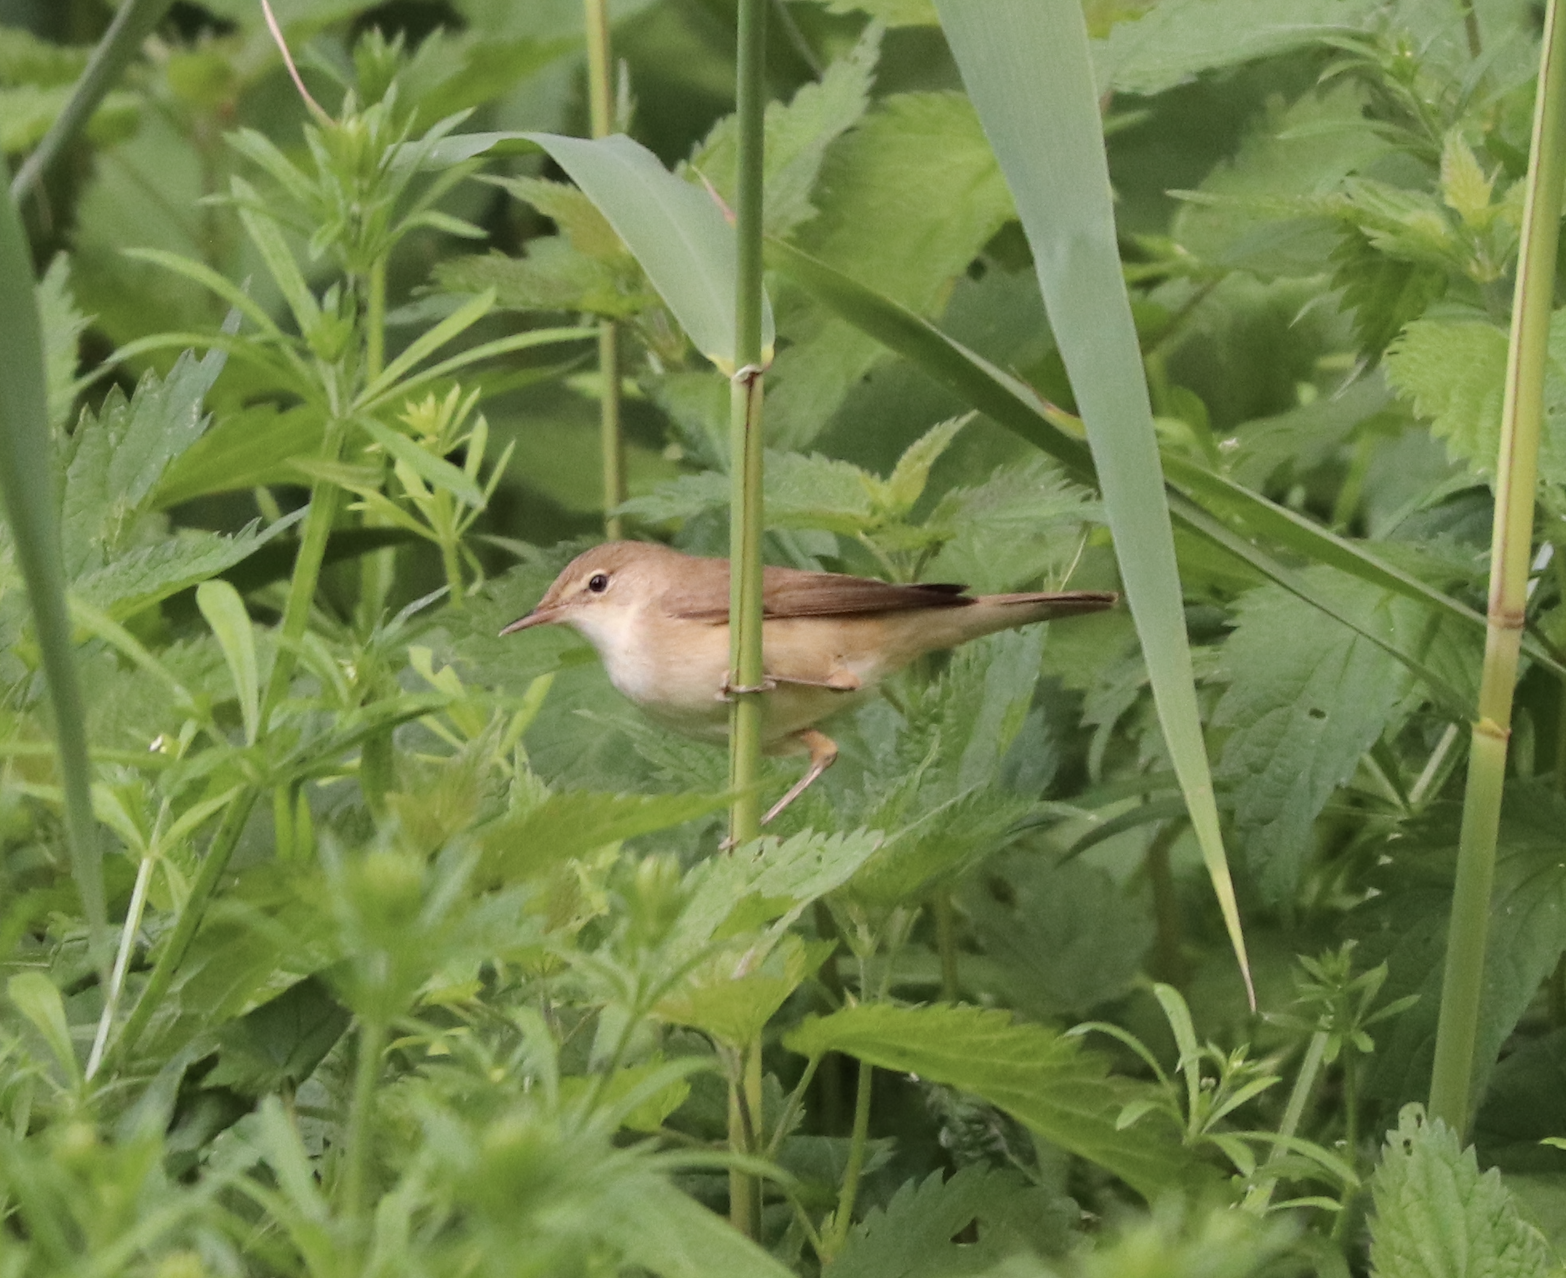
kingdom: Animalia
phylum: Chordata
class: Aves
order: Passeriformes
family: Acrocephalidae
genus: Acrocephalus
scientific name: Acrocephalus scirpaceus
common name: Eurasian reed warbler
